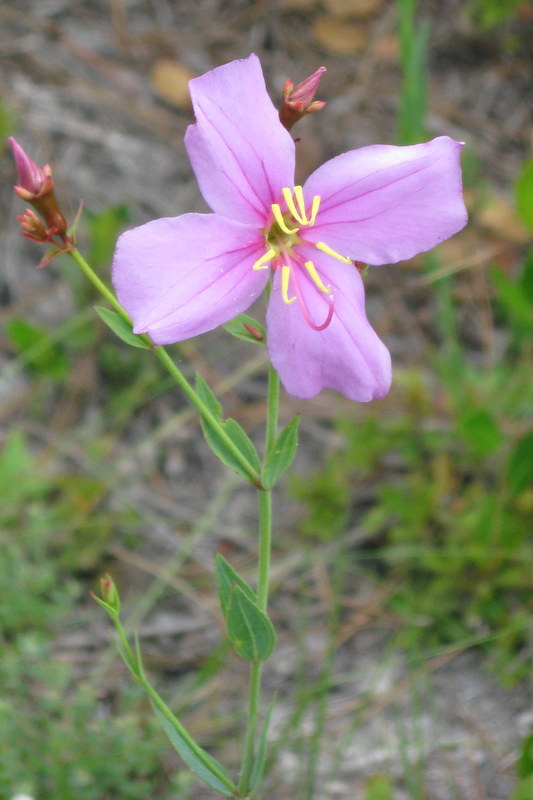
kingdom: Plantae
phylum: Tracheophyta
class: Magnoliopsida
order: Myrtales
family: Melastomataceae
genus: Rhexia
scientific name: Rhexia alifanus
